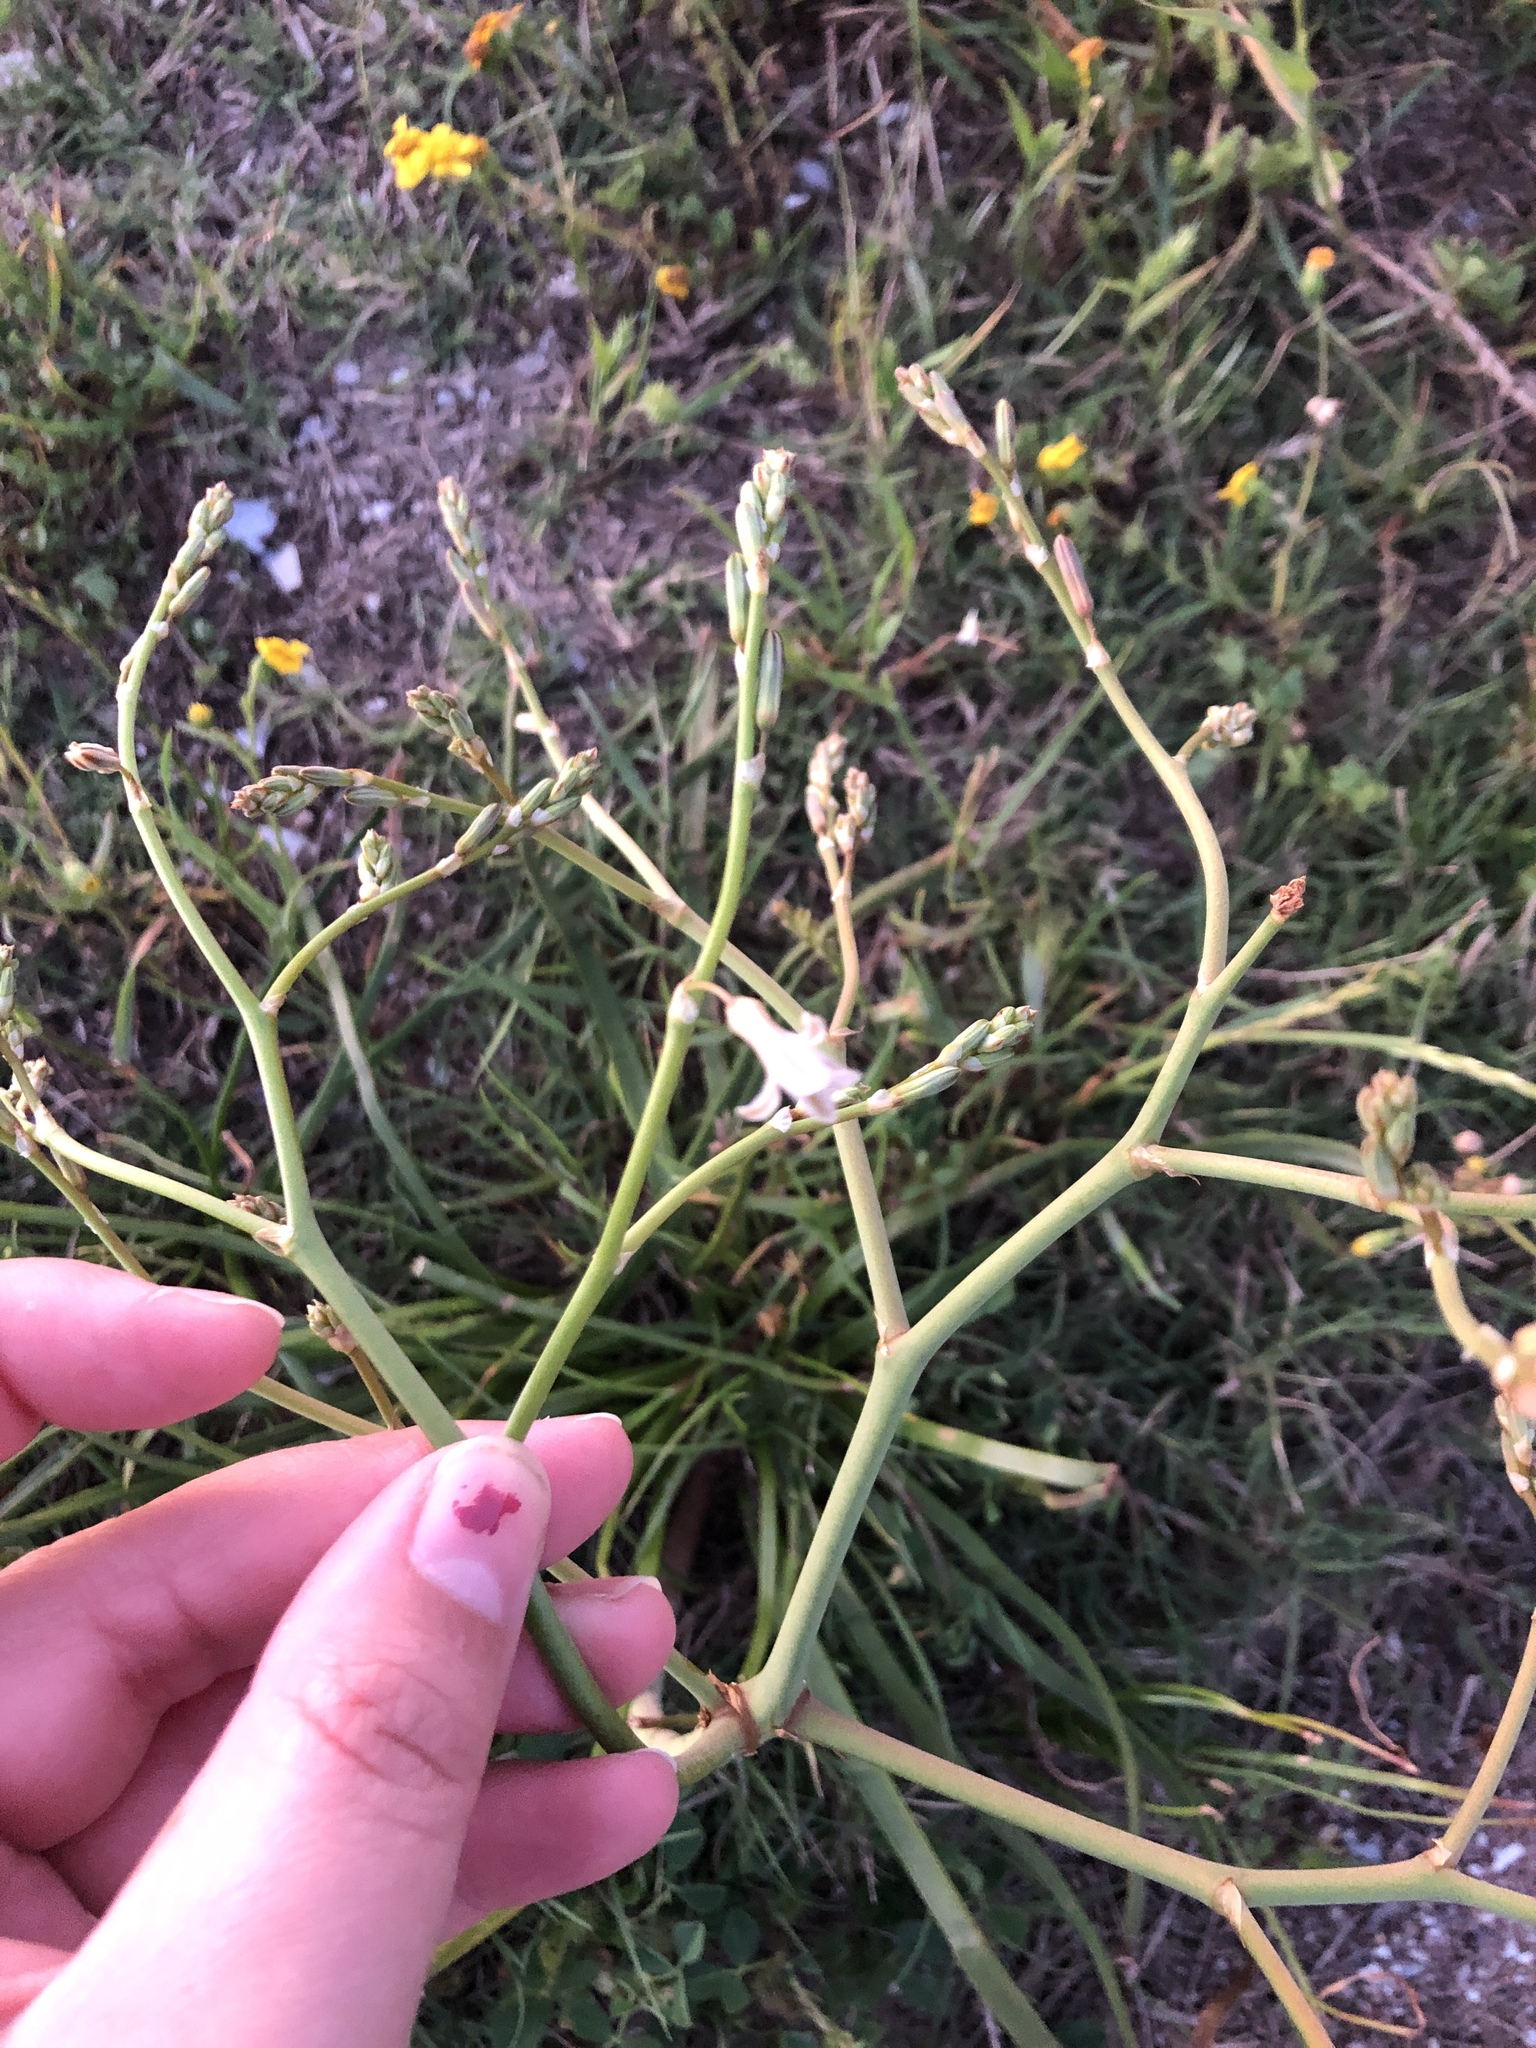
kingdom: Plantae
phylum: Tracheophyta
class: Liliopsida
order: Asparagales
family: Asphodelaceae
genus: Trachyandra
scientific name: Trachyandra divaricata
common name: Dune onionweed
